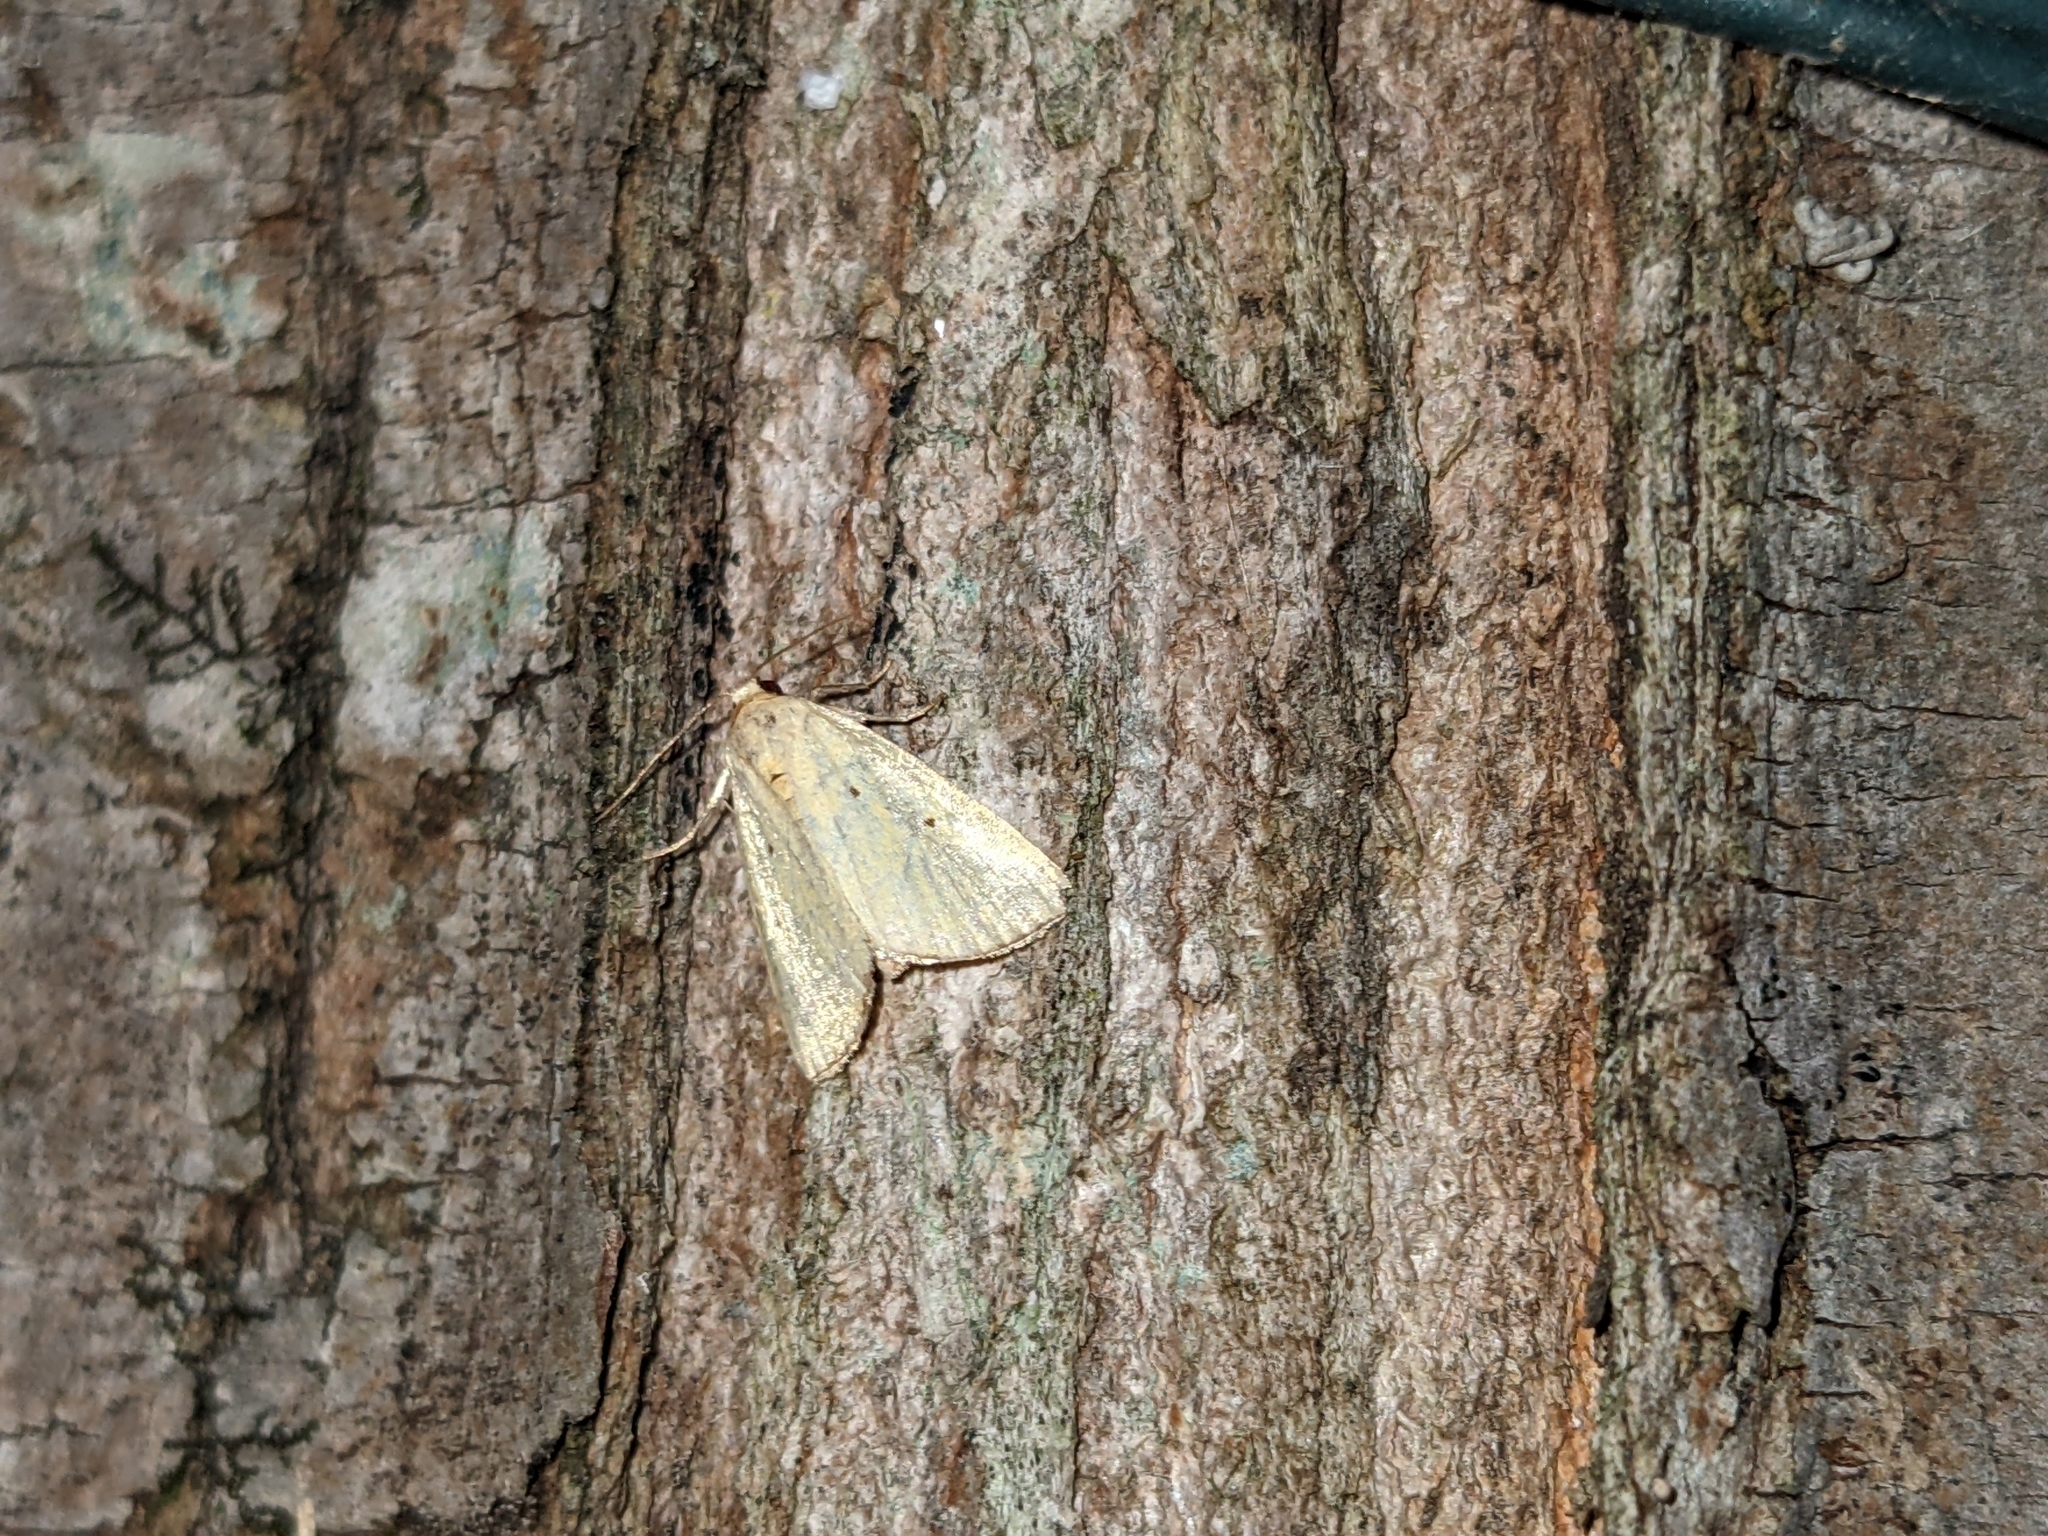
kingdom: Animalia
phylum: Arthropoda
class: Insecta
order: Lepidoptera
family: Noctuidae
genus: Marimatha
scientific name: Marimatha nigrofimbria
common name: Black-bordered lemon moth
